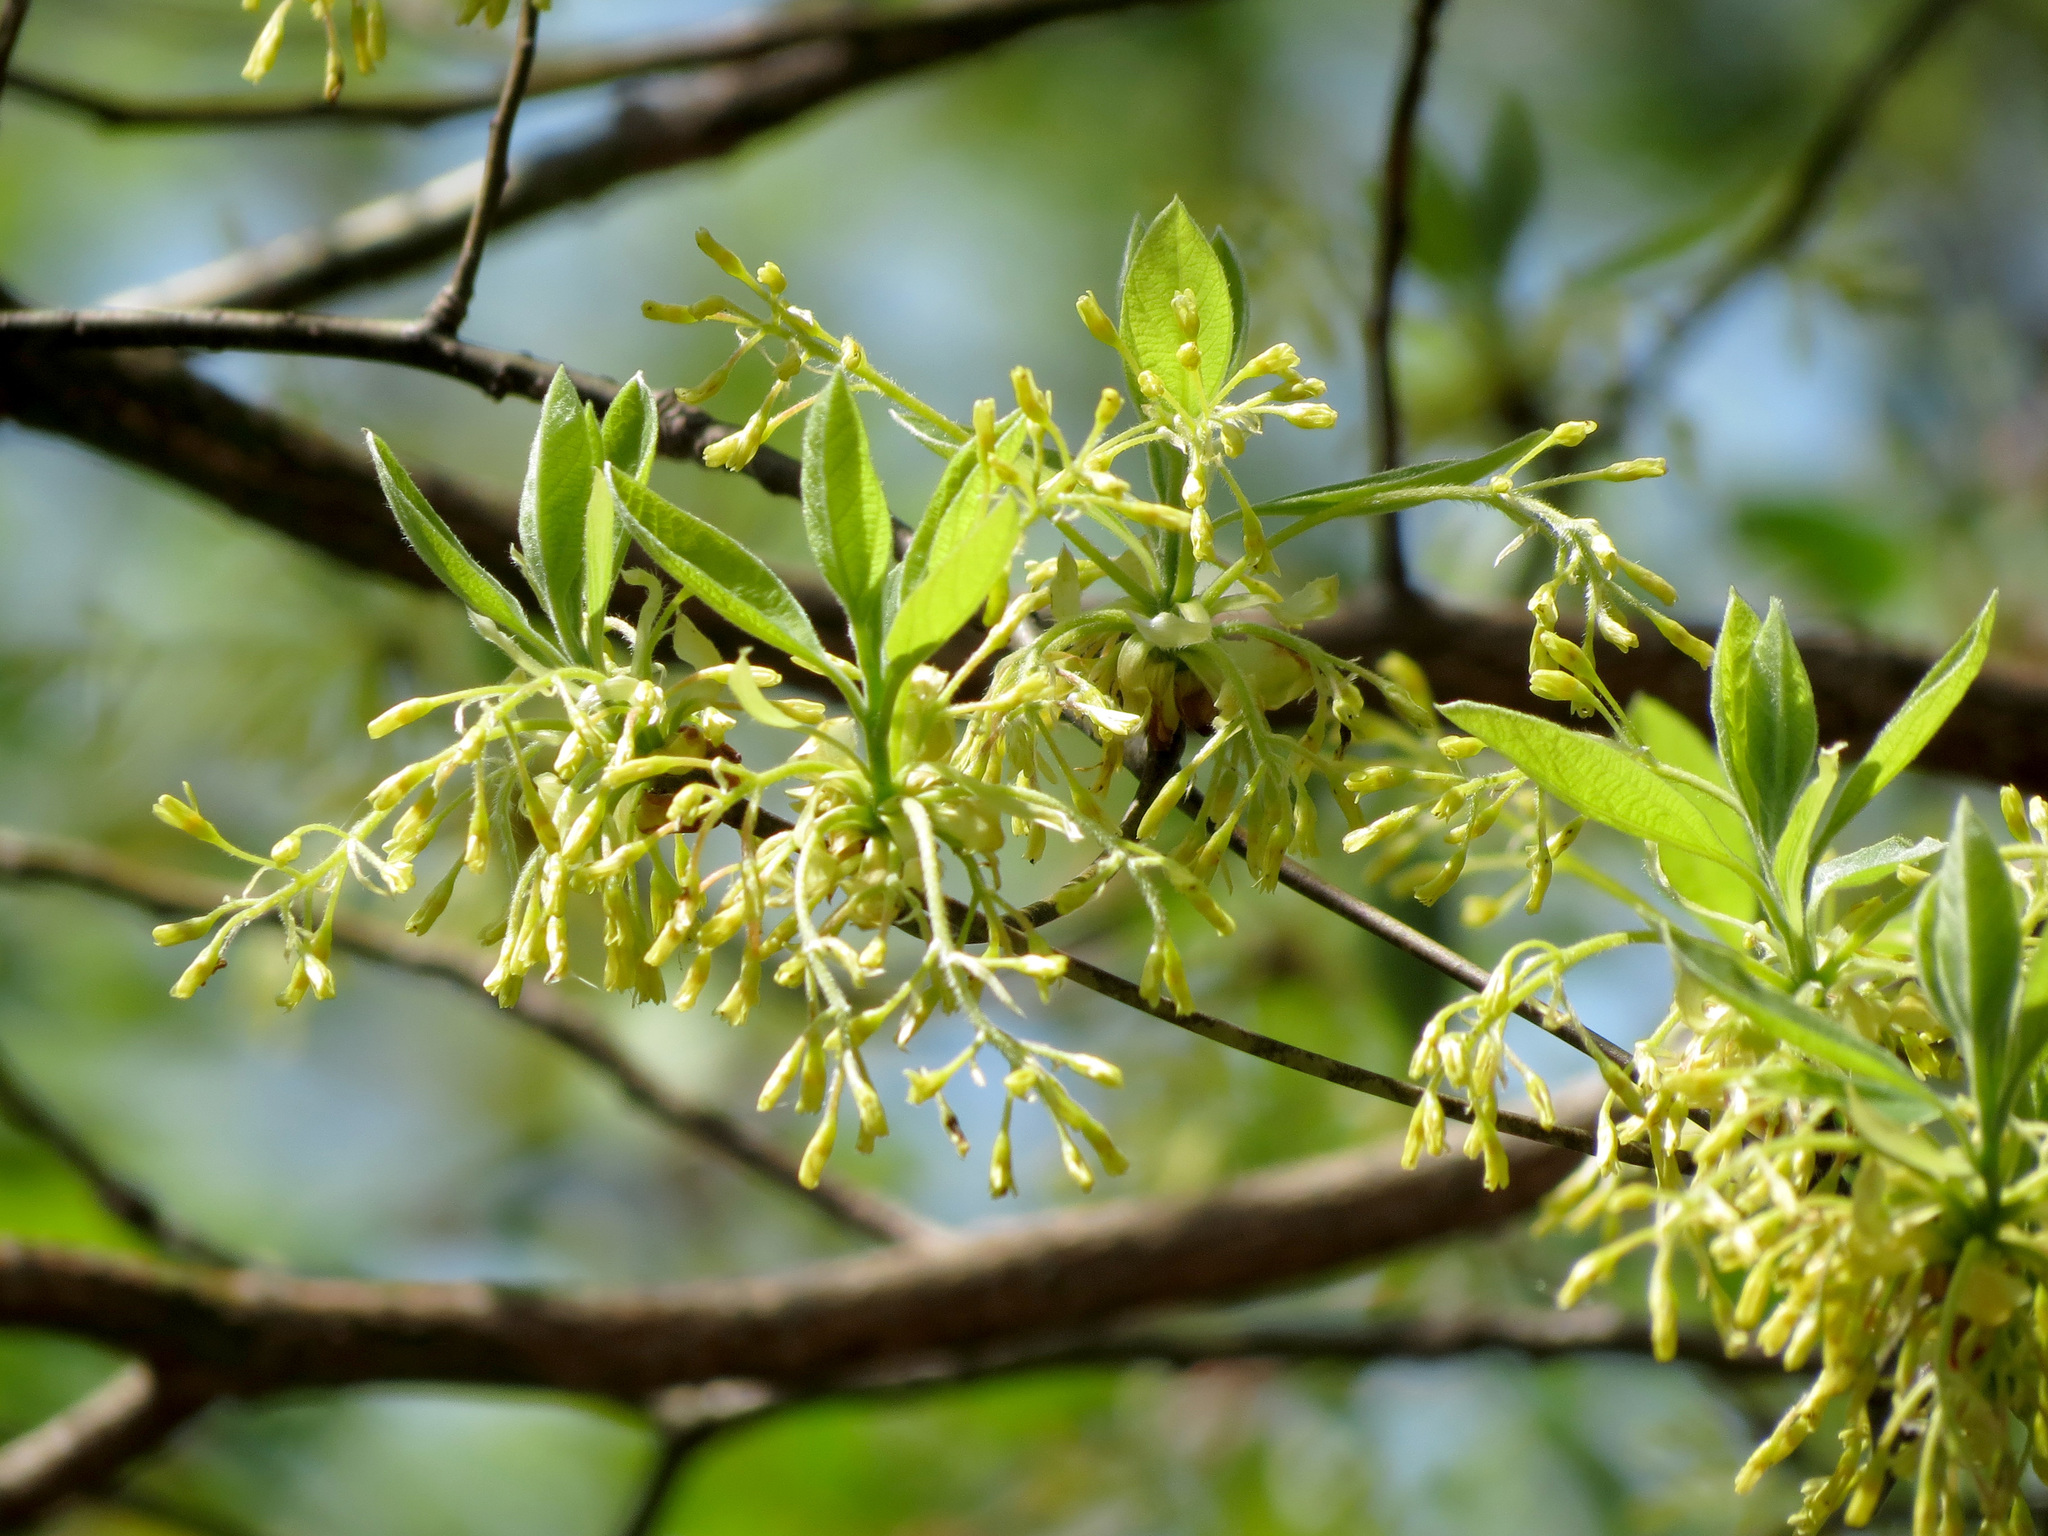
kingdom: Plantae
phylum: Tracheophyta
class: Magnoliopsida
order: Laurales
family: Lauraceae
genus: Sassafras
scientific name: Sassafras albidum
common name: Sassafras
